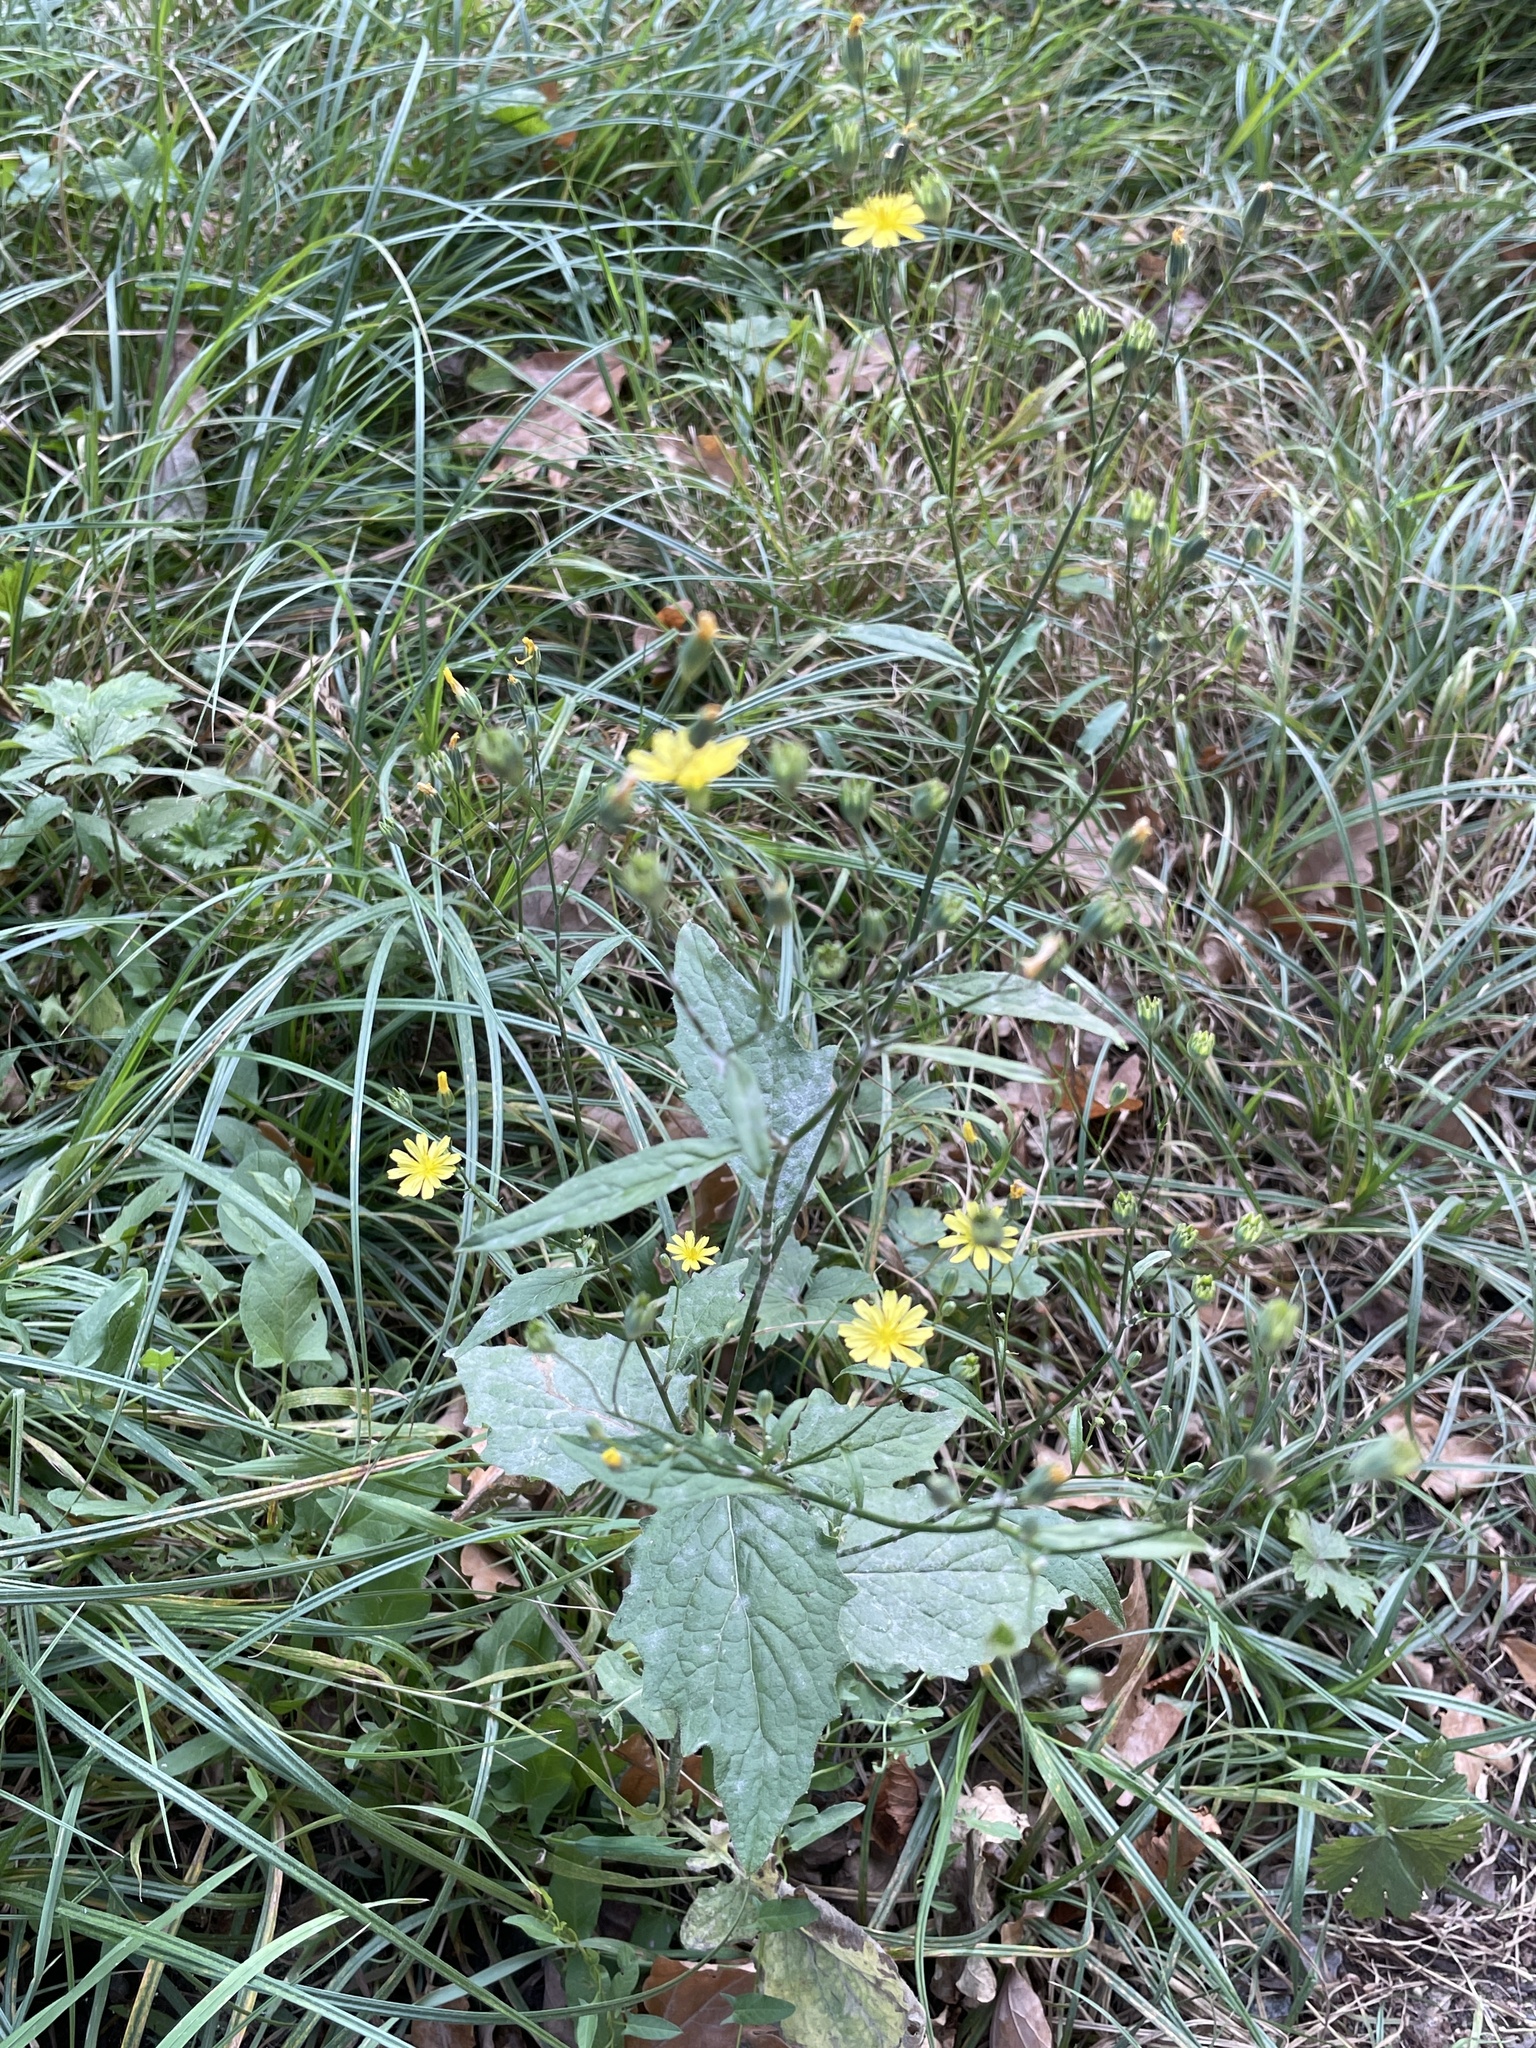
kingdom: Plantae
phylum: Tracheophyta
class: Magnoliopsida
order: Asterales
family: Asteraceae
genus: Lapsana
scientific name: Lapsana communis
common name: Nipplewort
